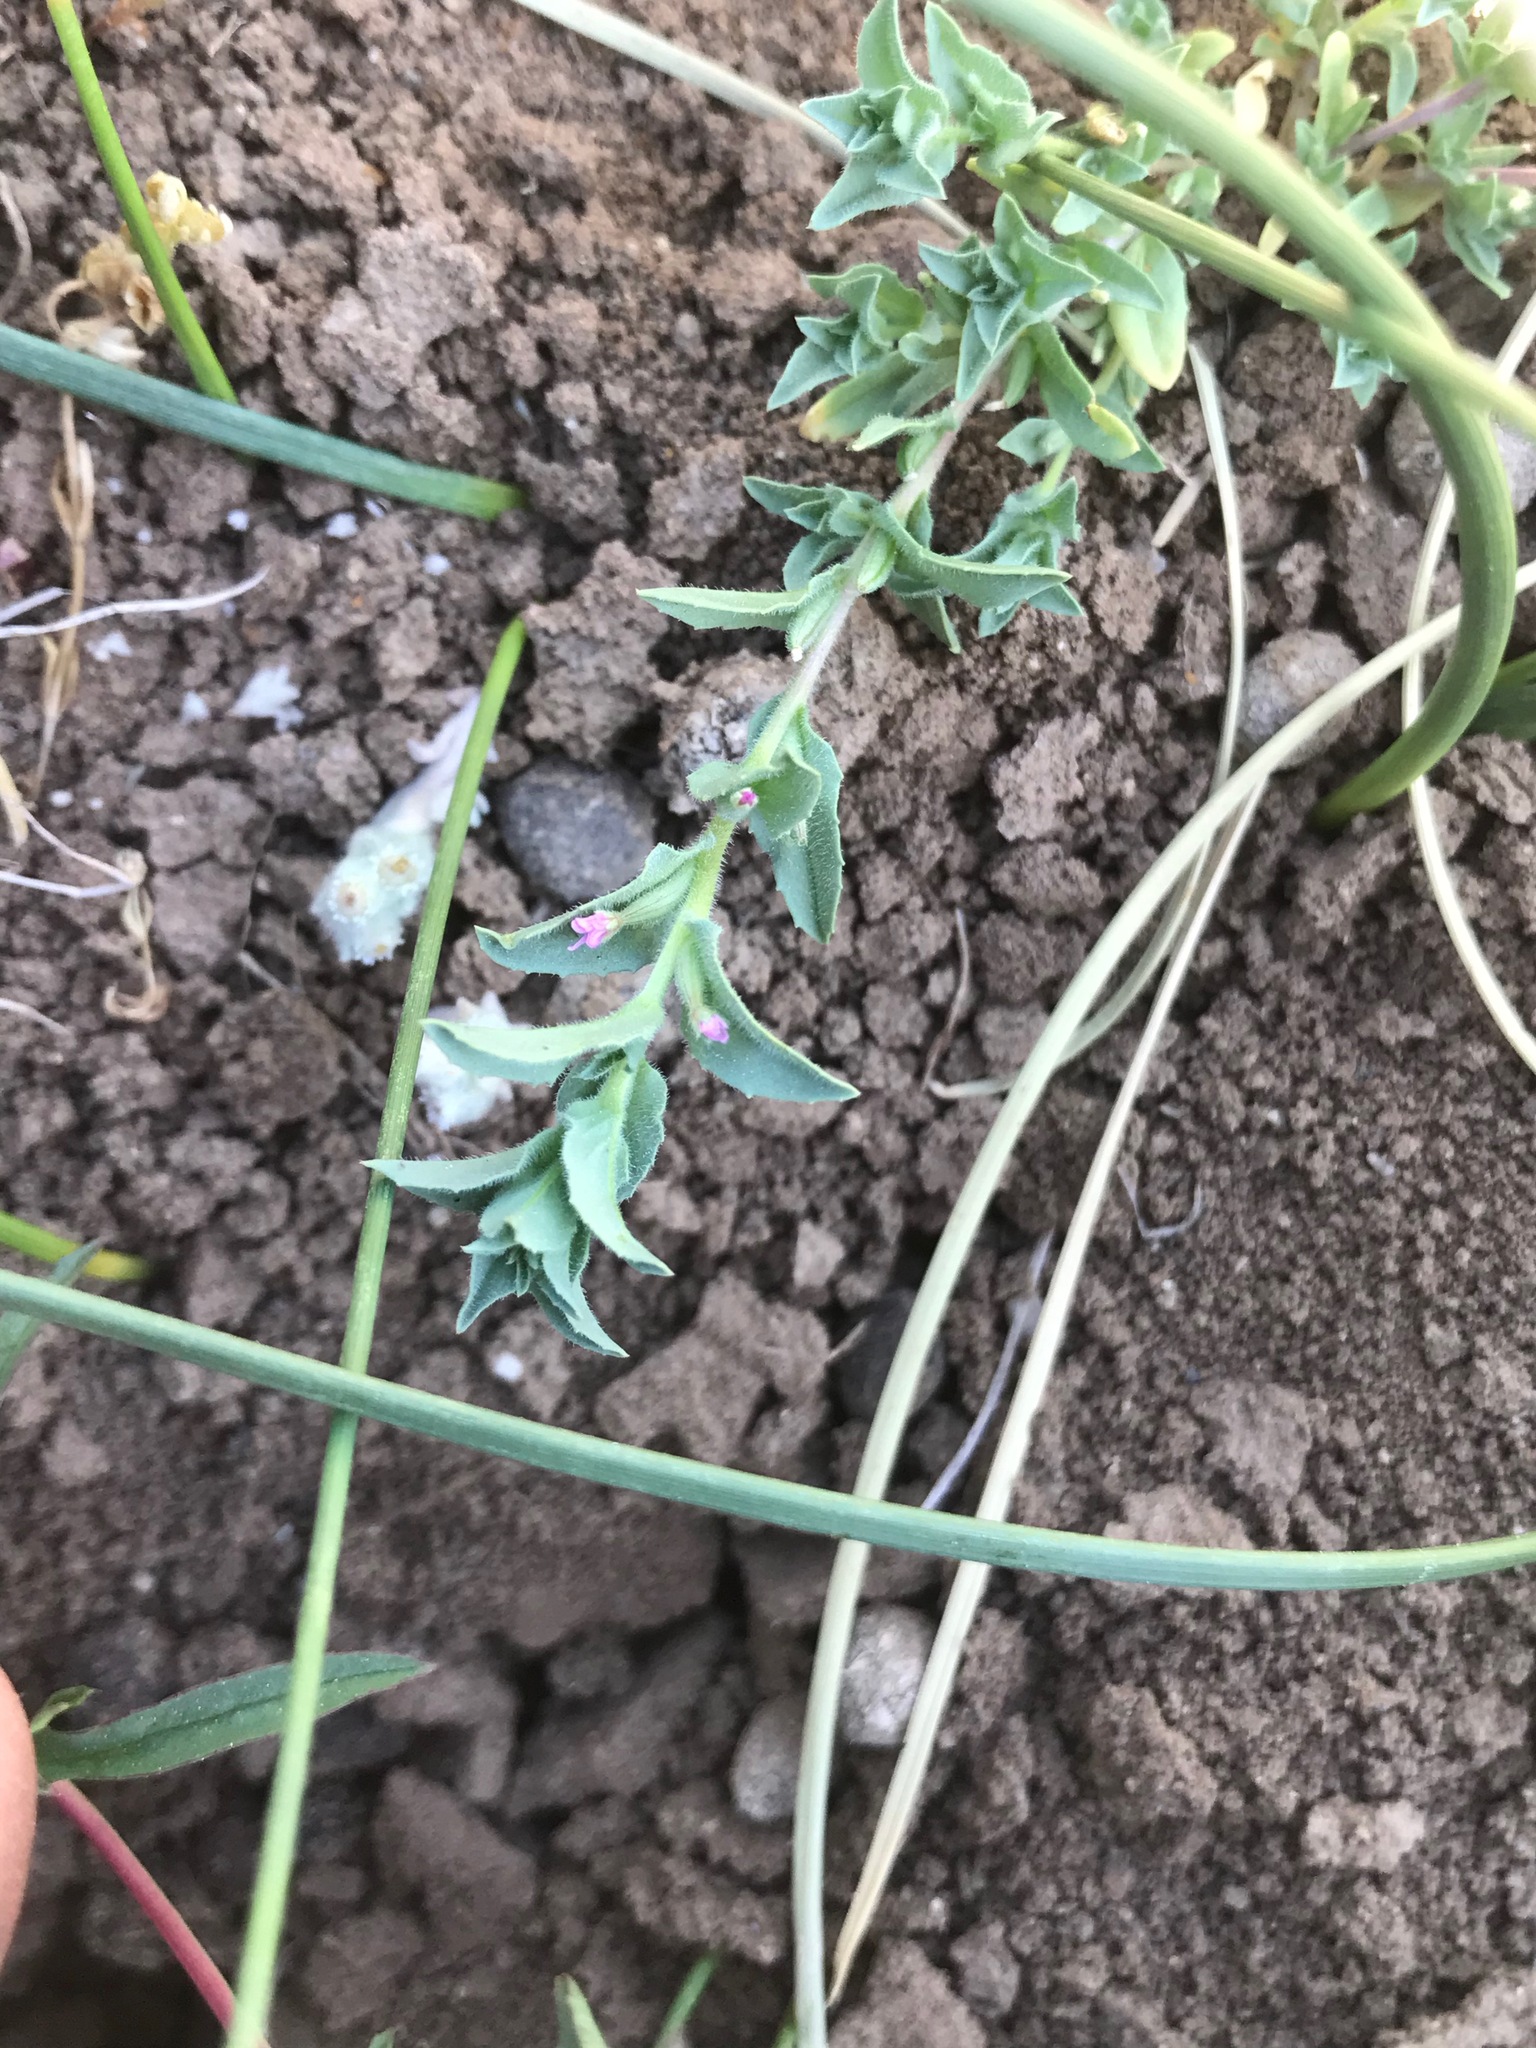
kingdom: Plantae
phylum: Tracheophyta
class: Magnoliopsida
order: Myrtales
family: Onagraceae
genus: Epilobium
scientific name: Epilobium campestre
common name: Smooth spike-primrose
